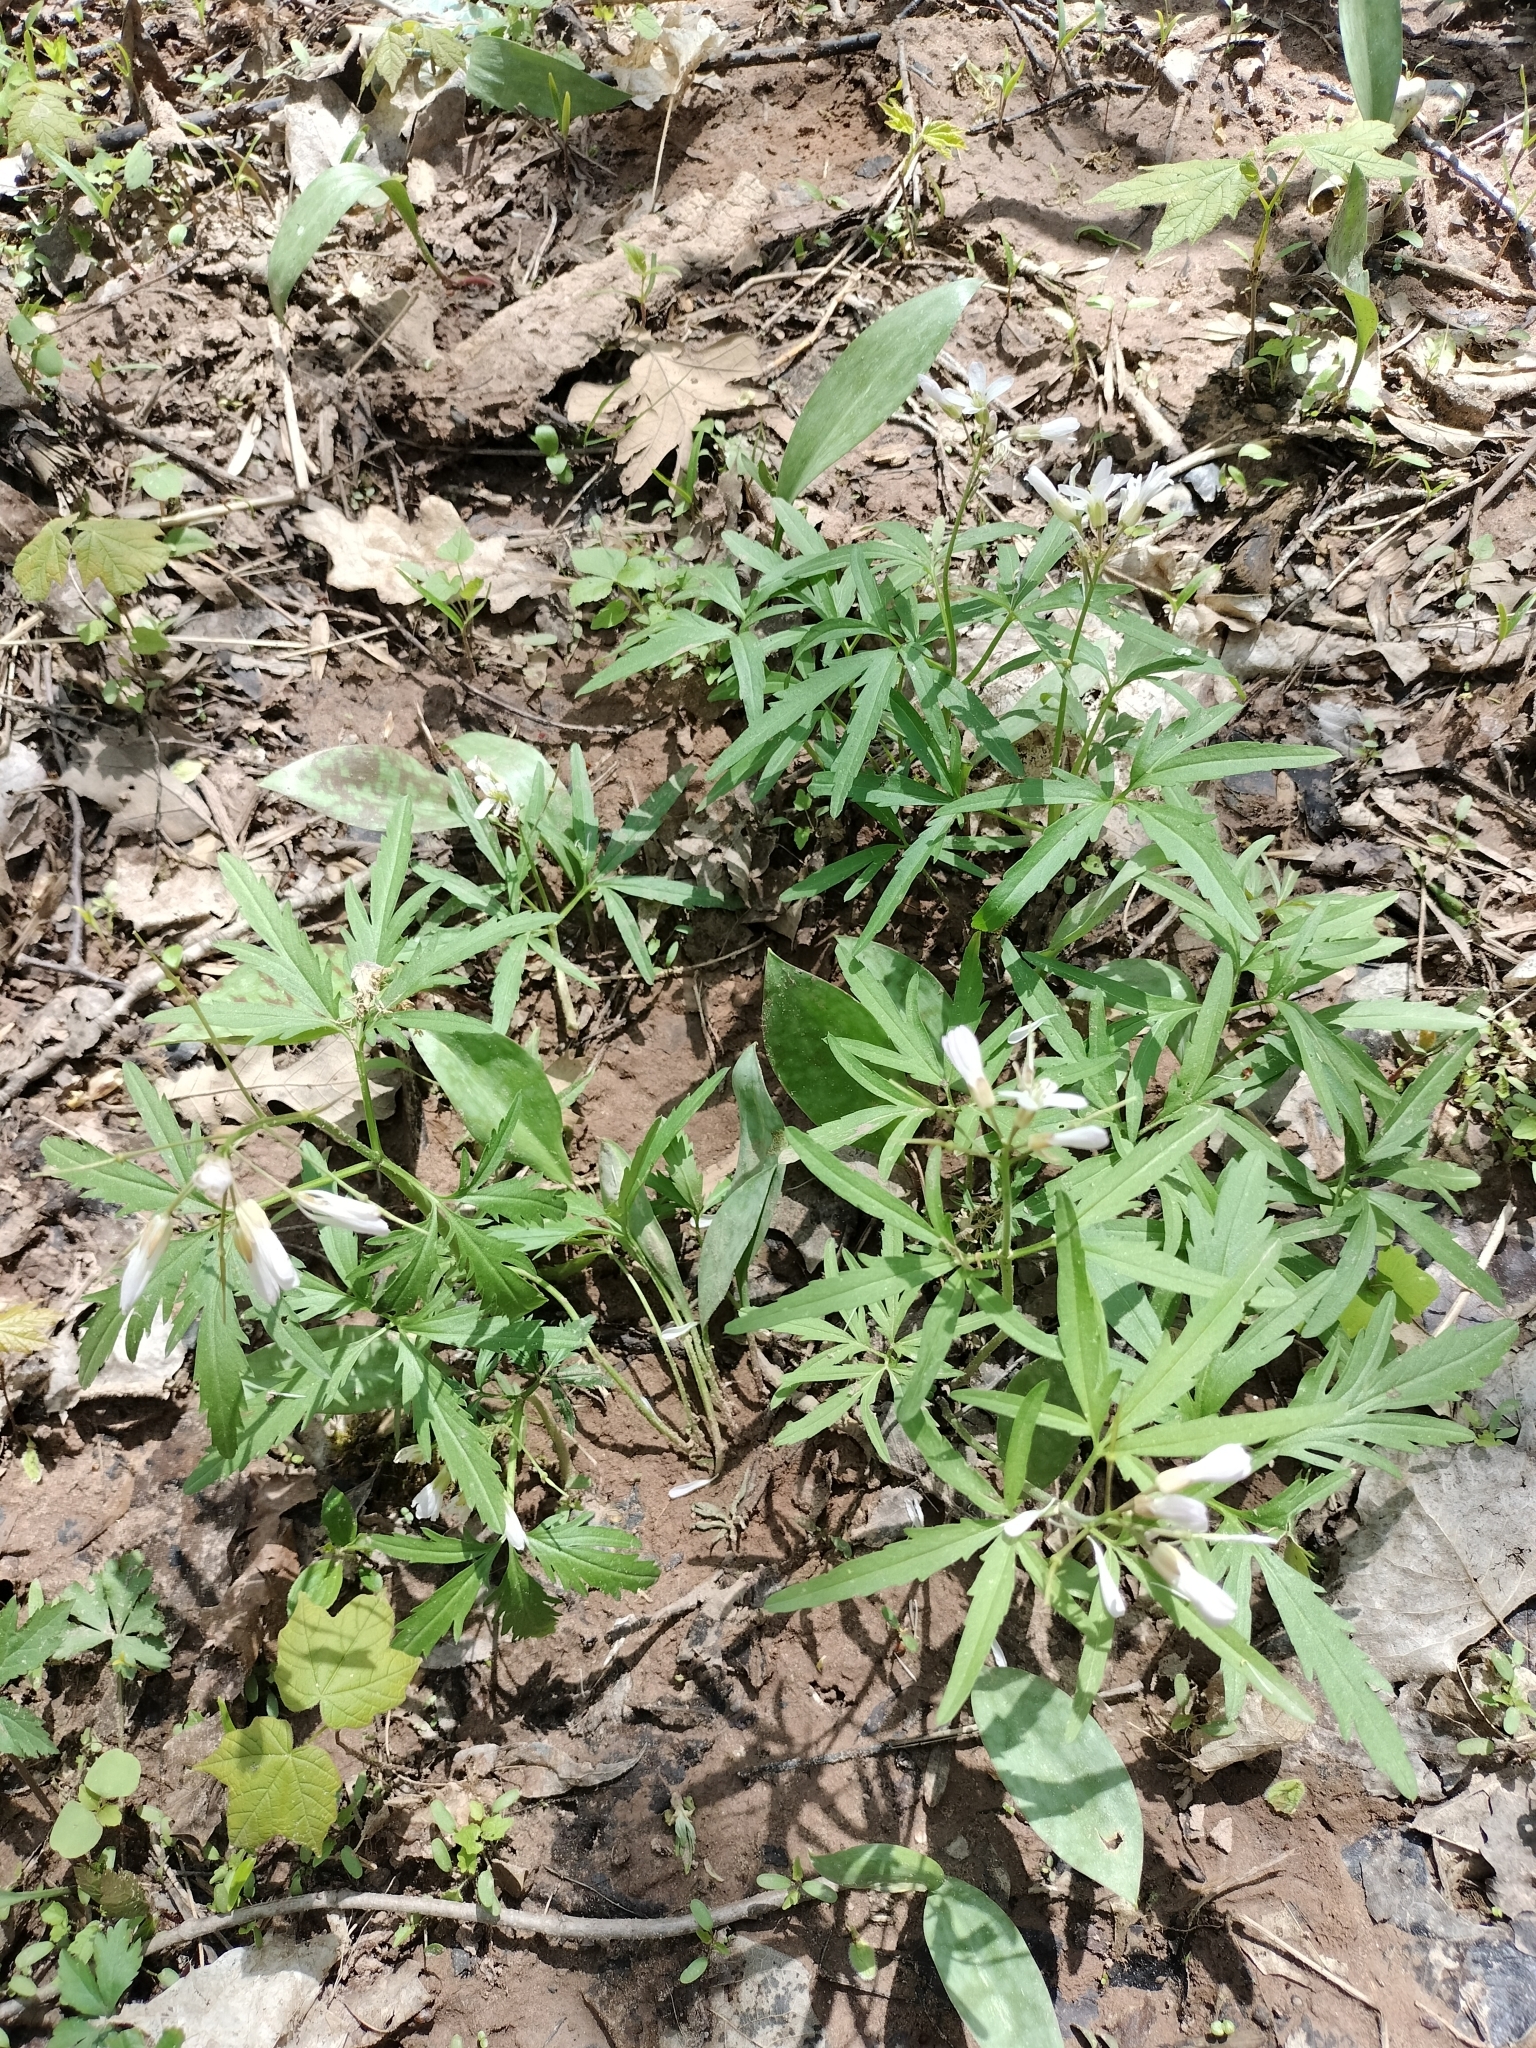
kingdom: Plantae
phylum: Tracheophyta
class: Magnoliopsida
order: Brassicales
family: Brassicaceae
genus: Cardamine
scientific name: Cardamine concatenata
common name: Cut-leaf toothcup
